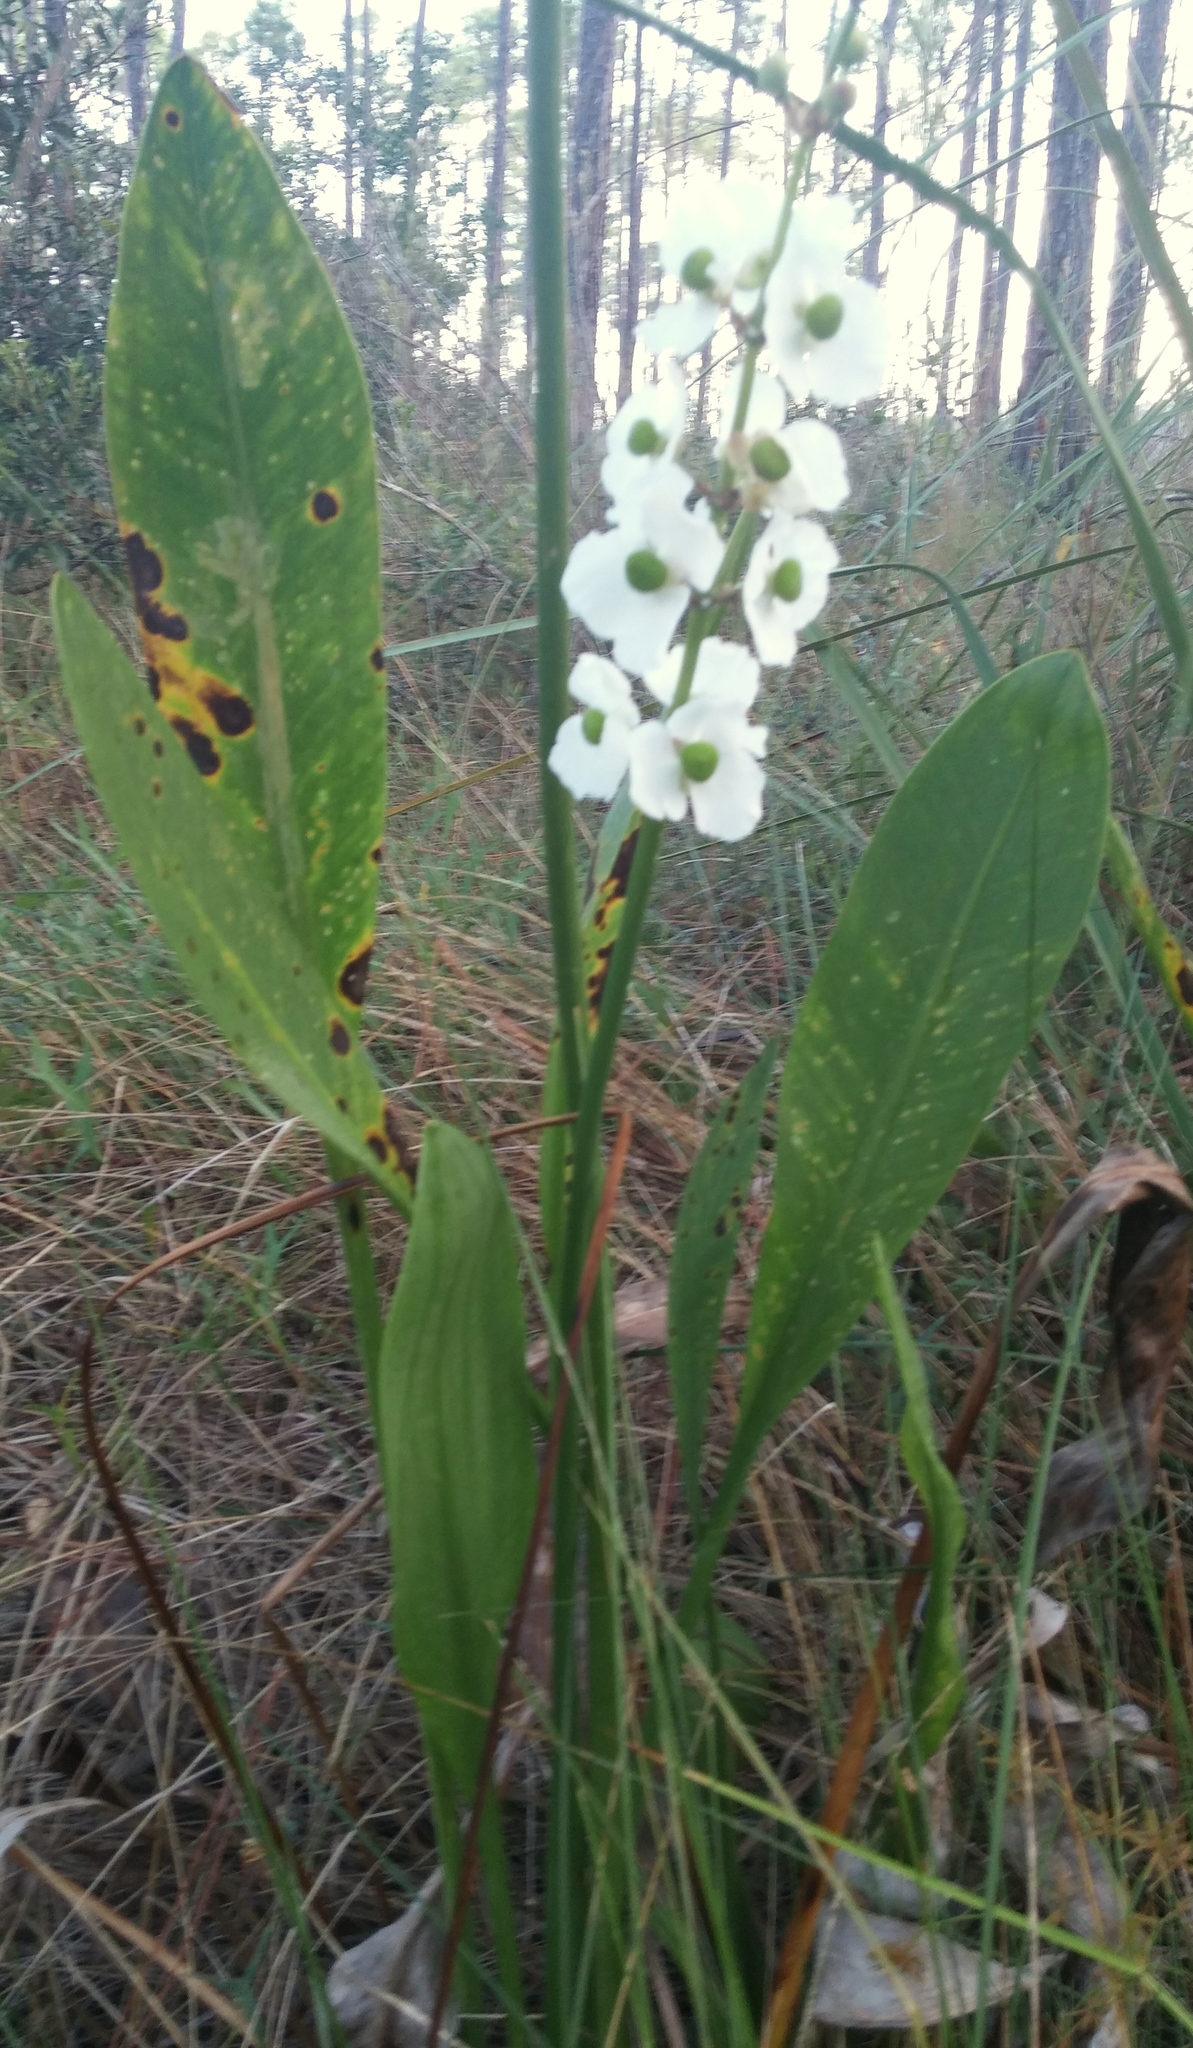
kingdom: Plantae
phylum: Tracheophyta
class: Liliopsida
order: Alismatales
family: Alismataceae
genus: Sagittaria
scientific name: Sagittaria lancifolia
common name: Lance-leaf arrowhead
